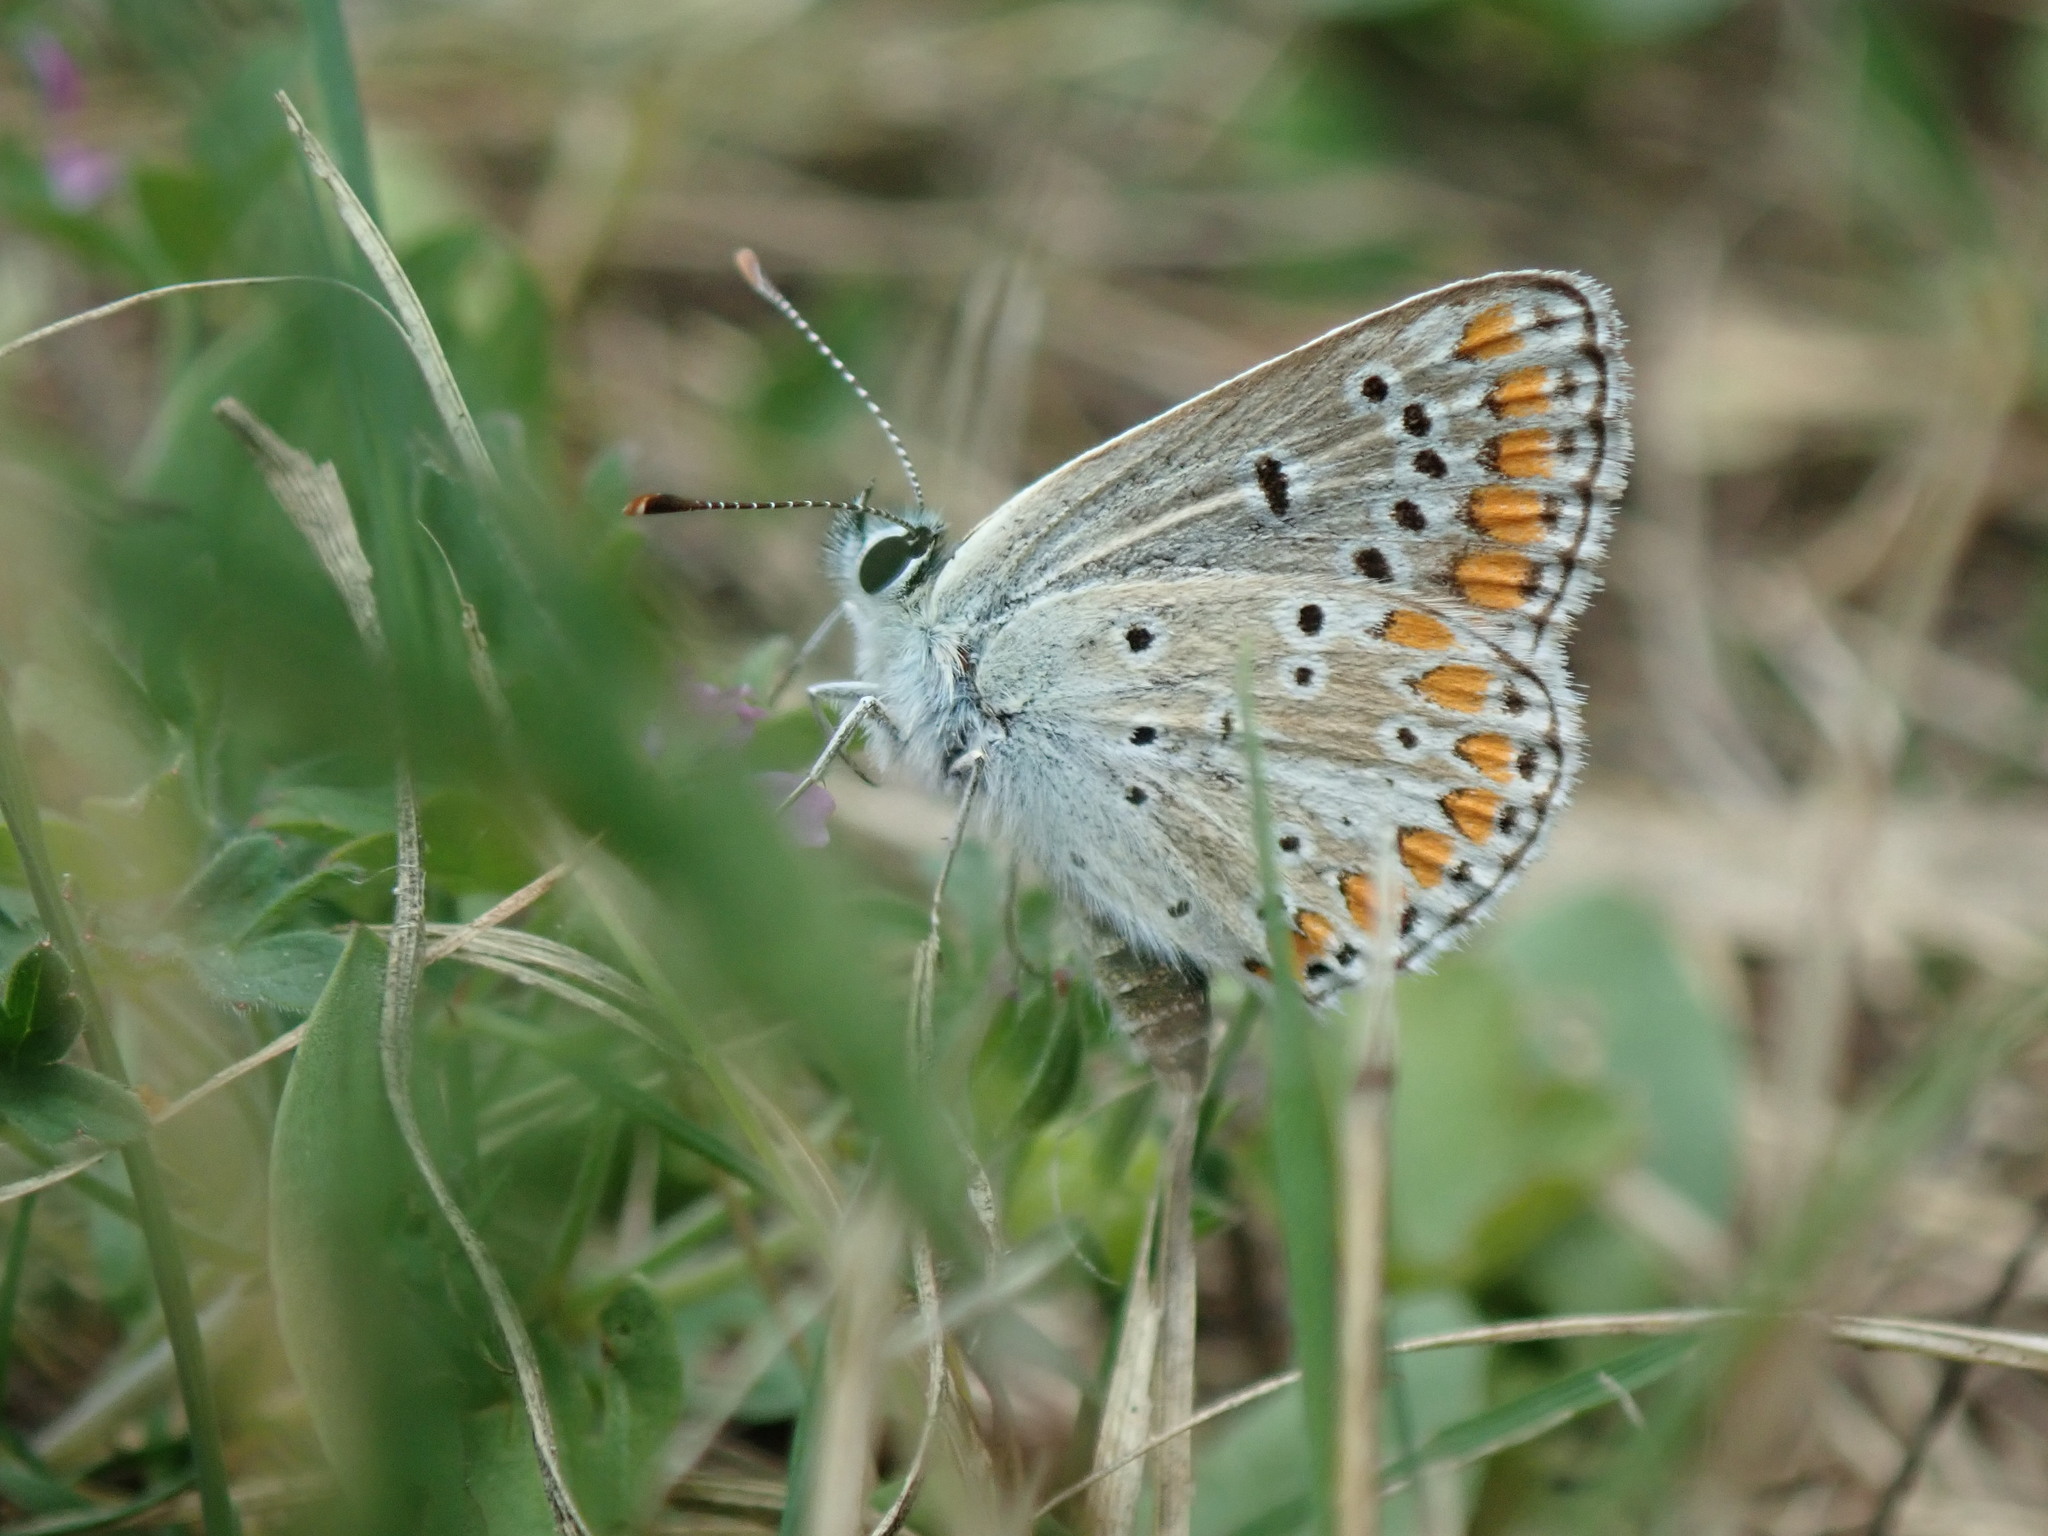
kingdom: Animalia
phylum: Arthropoda
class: Insecta
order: Lepidoptera
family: Lycaenidae
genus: Aricia
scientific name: Aricia agestis
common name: Brown argus
